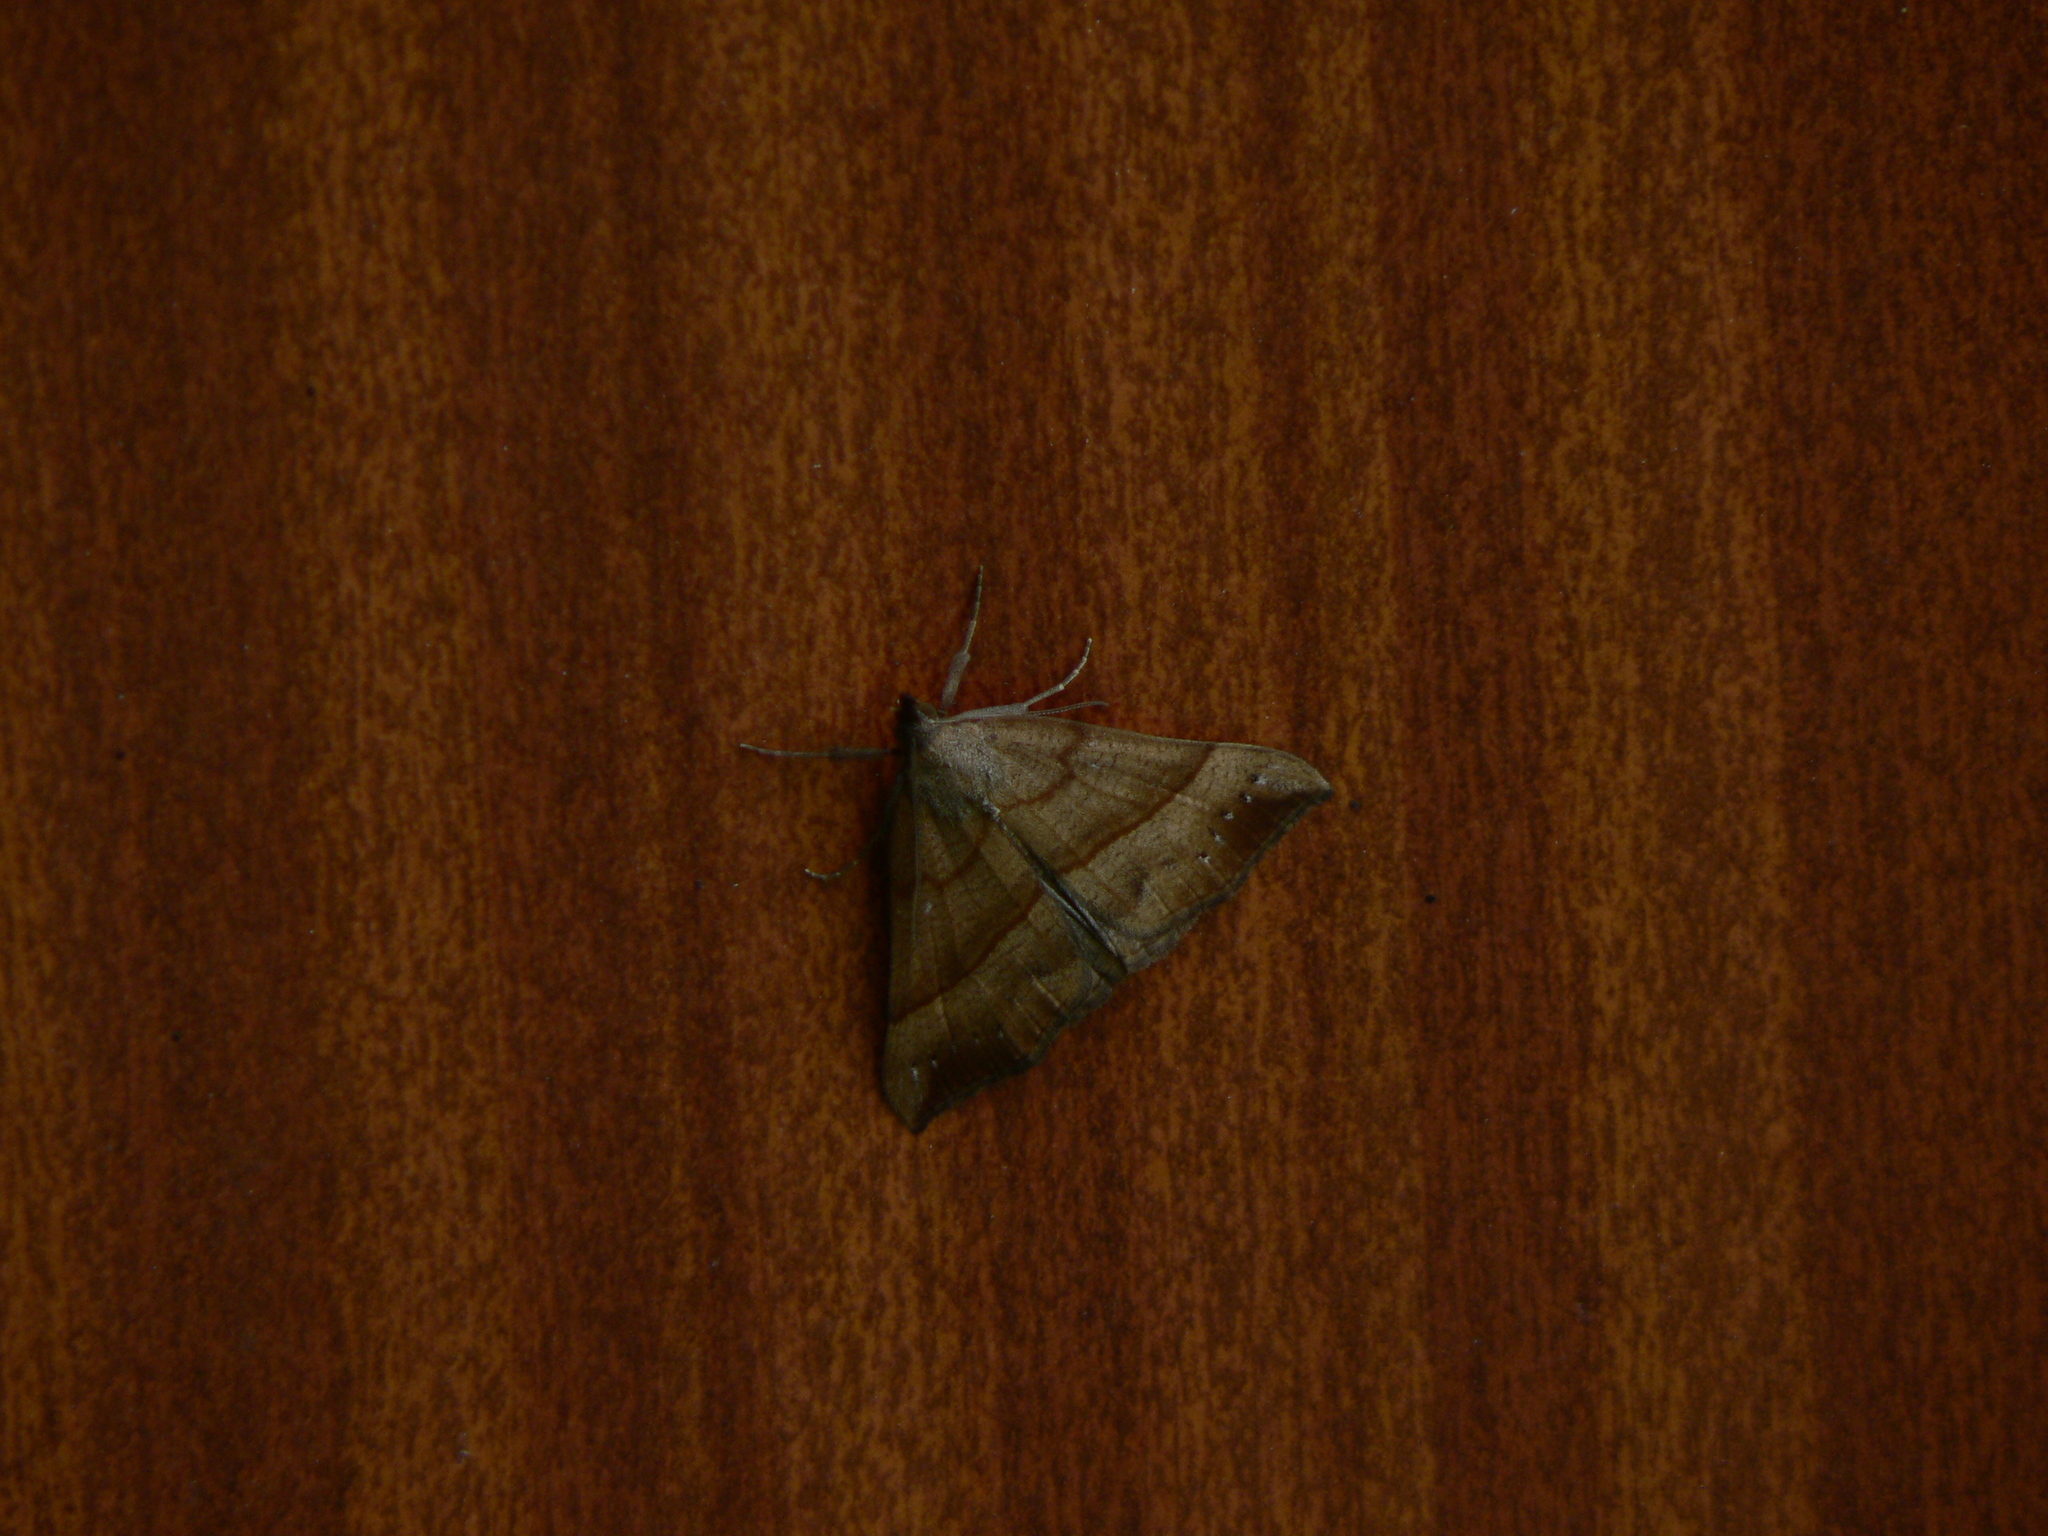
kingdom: Animalia
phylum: Arthropoda
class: Insecta
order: Lepidoptera
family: Erebidae
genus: Hypena
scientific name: Hypena proboscidalis
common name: Snout
